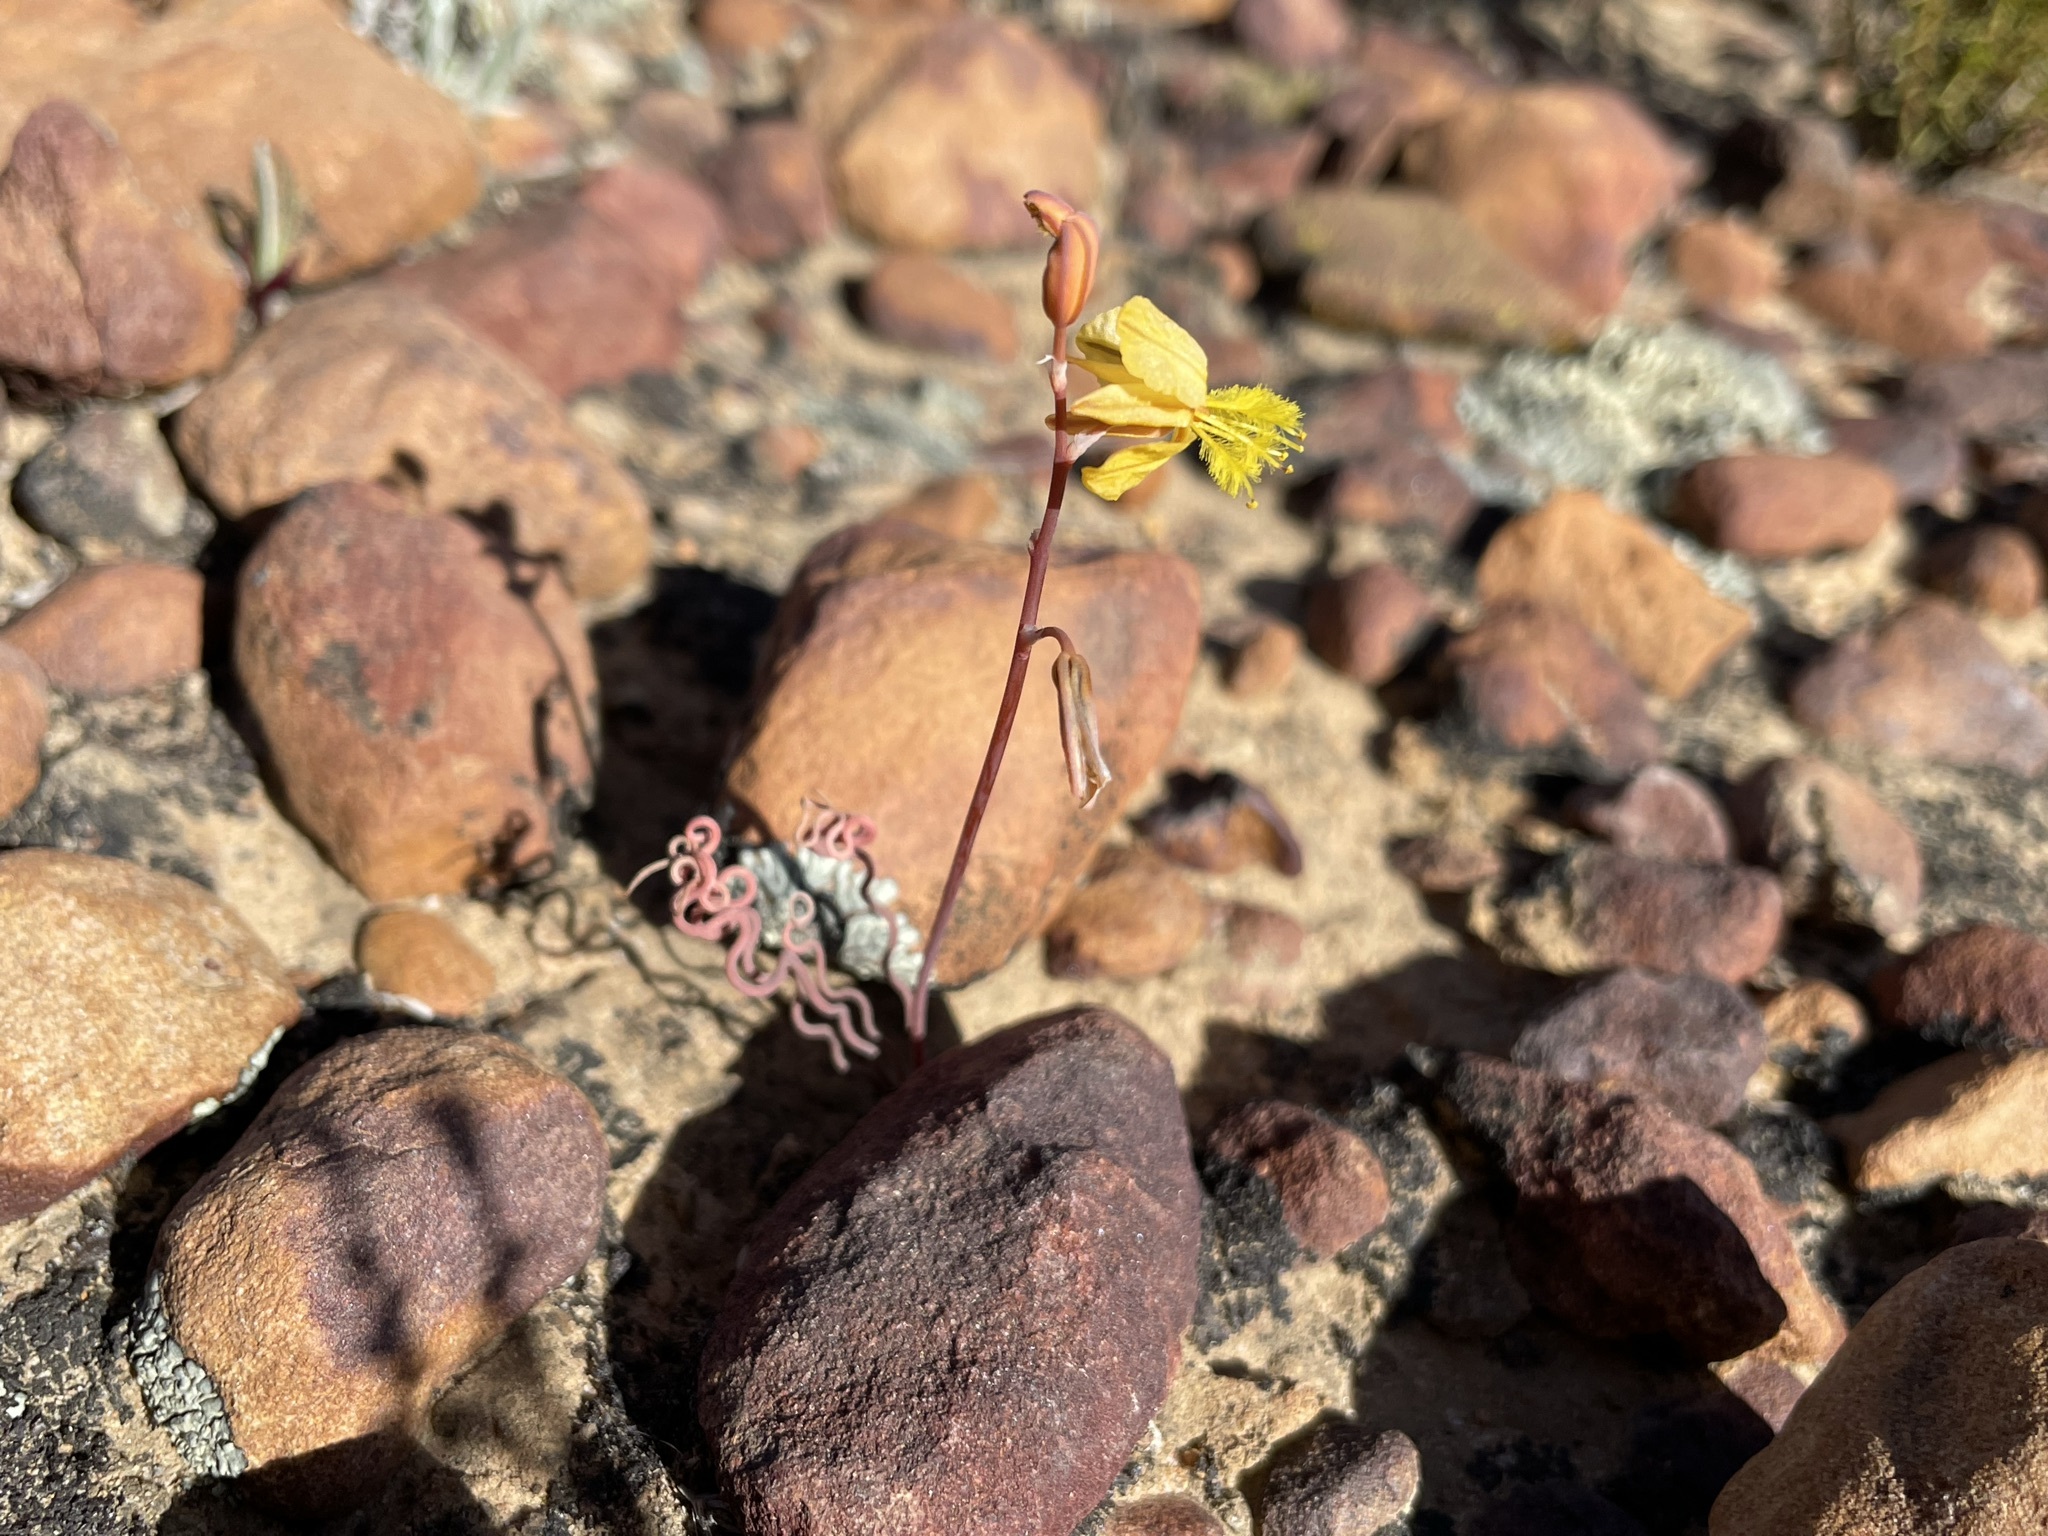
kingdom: Plantae
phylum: Tracheophyta
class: Liliopsida
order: Asparagales
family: Asphodelaceae
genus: Bulbine
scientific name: Bulbine torta
